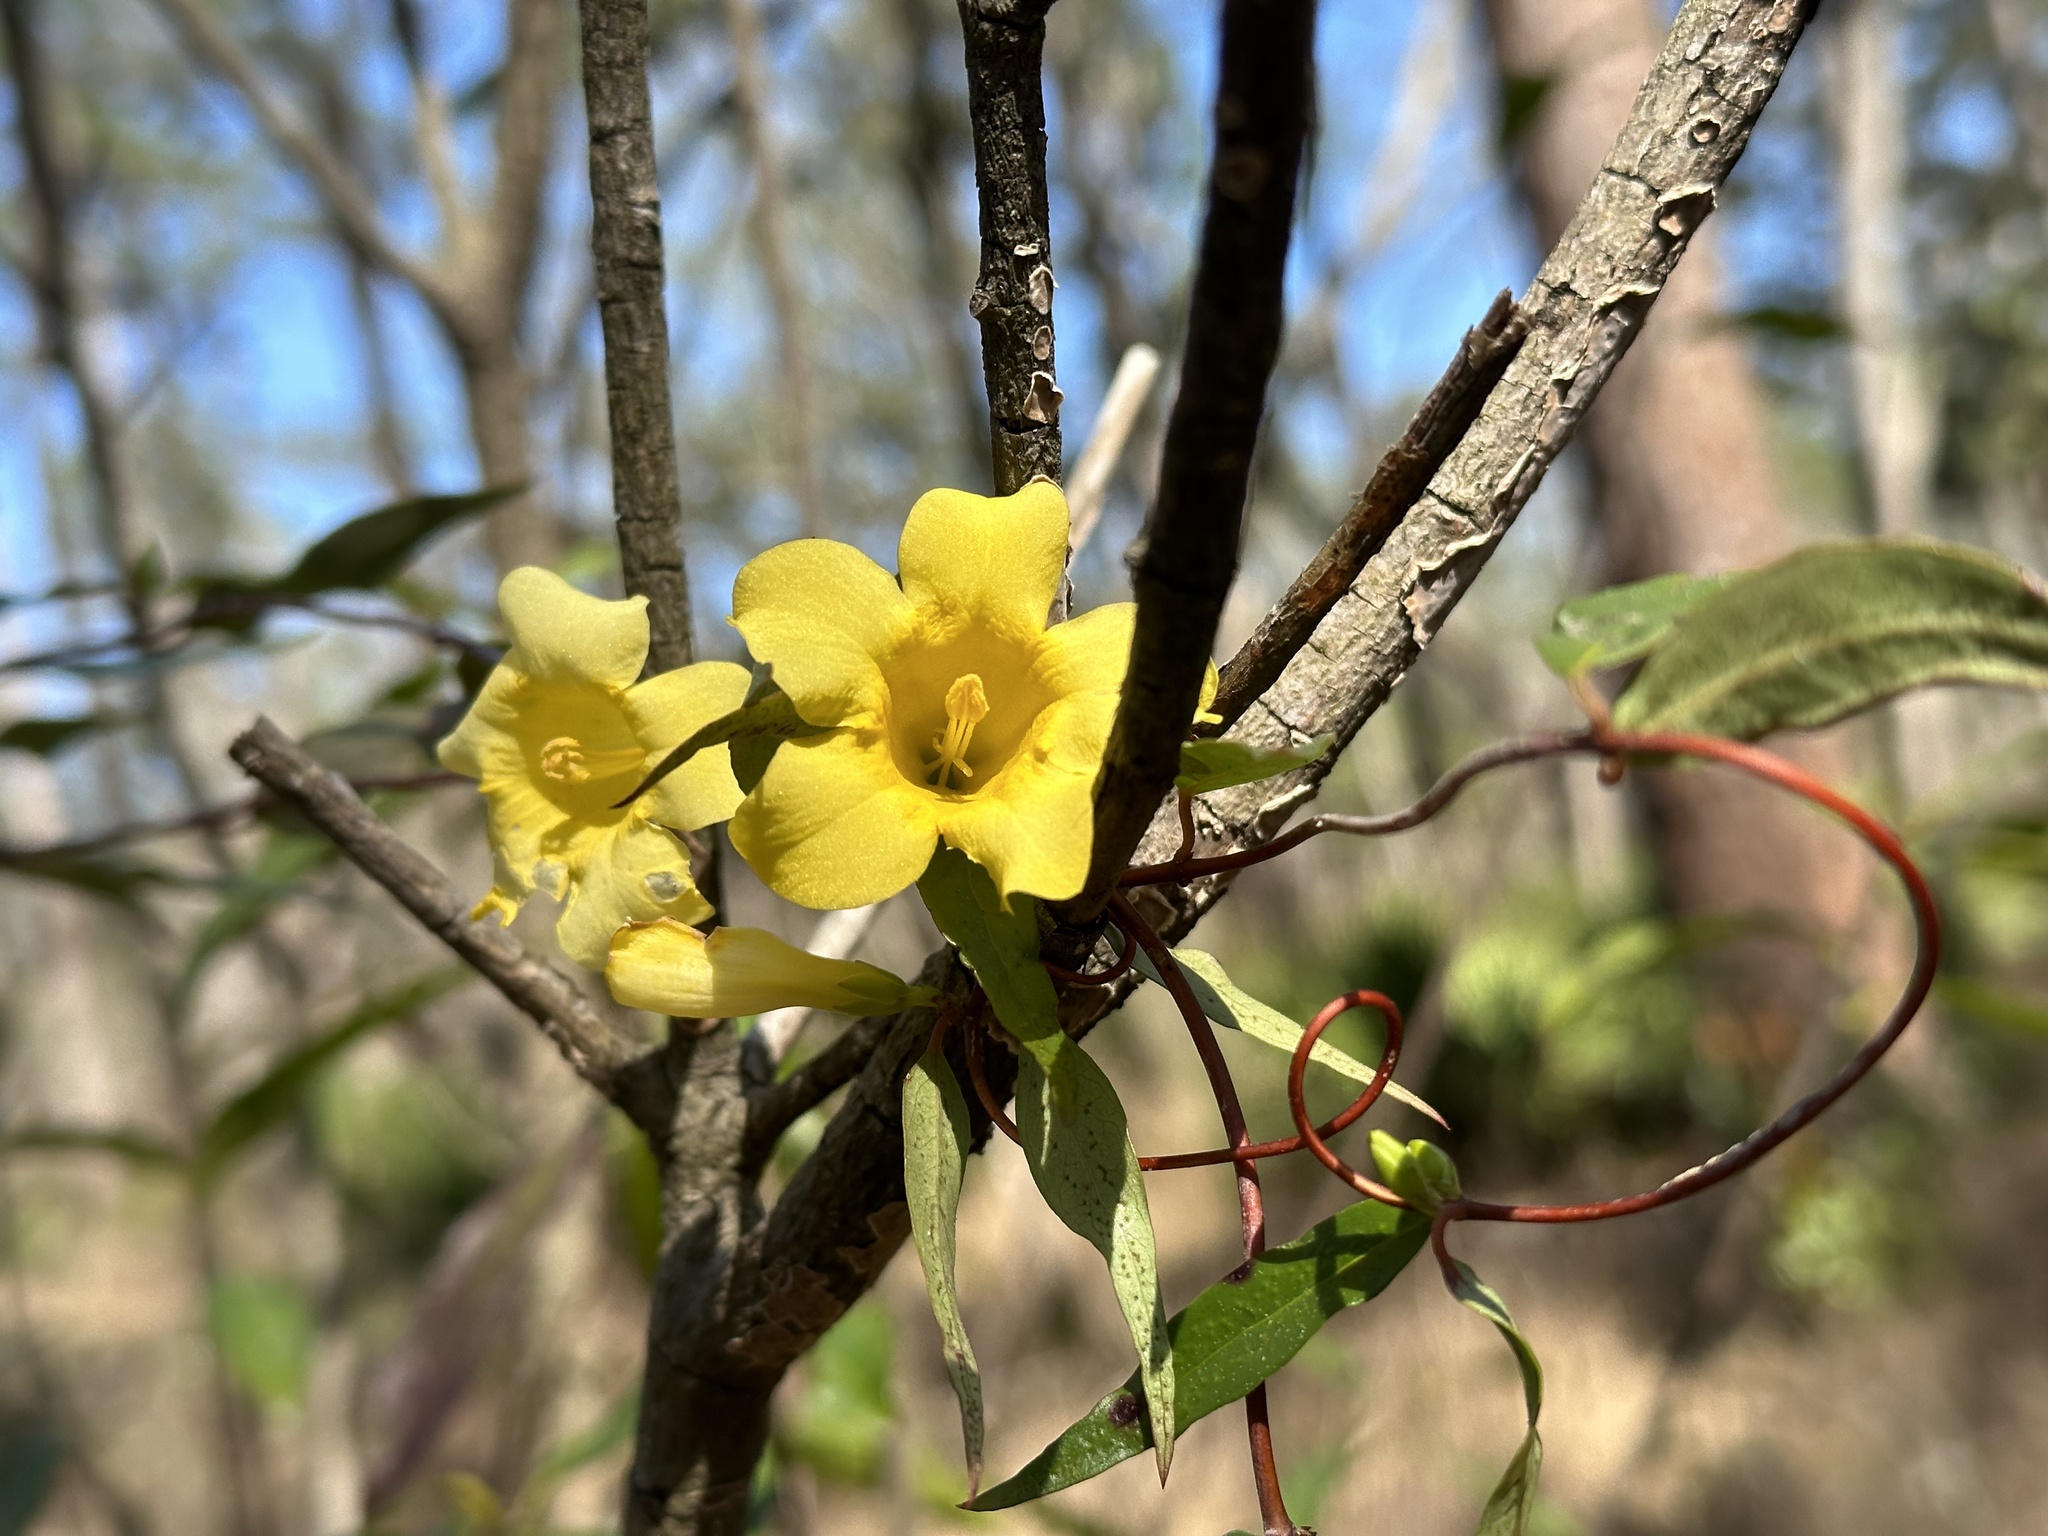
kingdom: Plantae
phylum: Tracheophyta
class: Magnoliopsida
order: Gentianales
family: Gelsemiaceae
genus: Gelsemium
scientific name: Gelsemium sempervirens
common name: Carolina-jasmine
